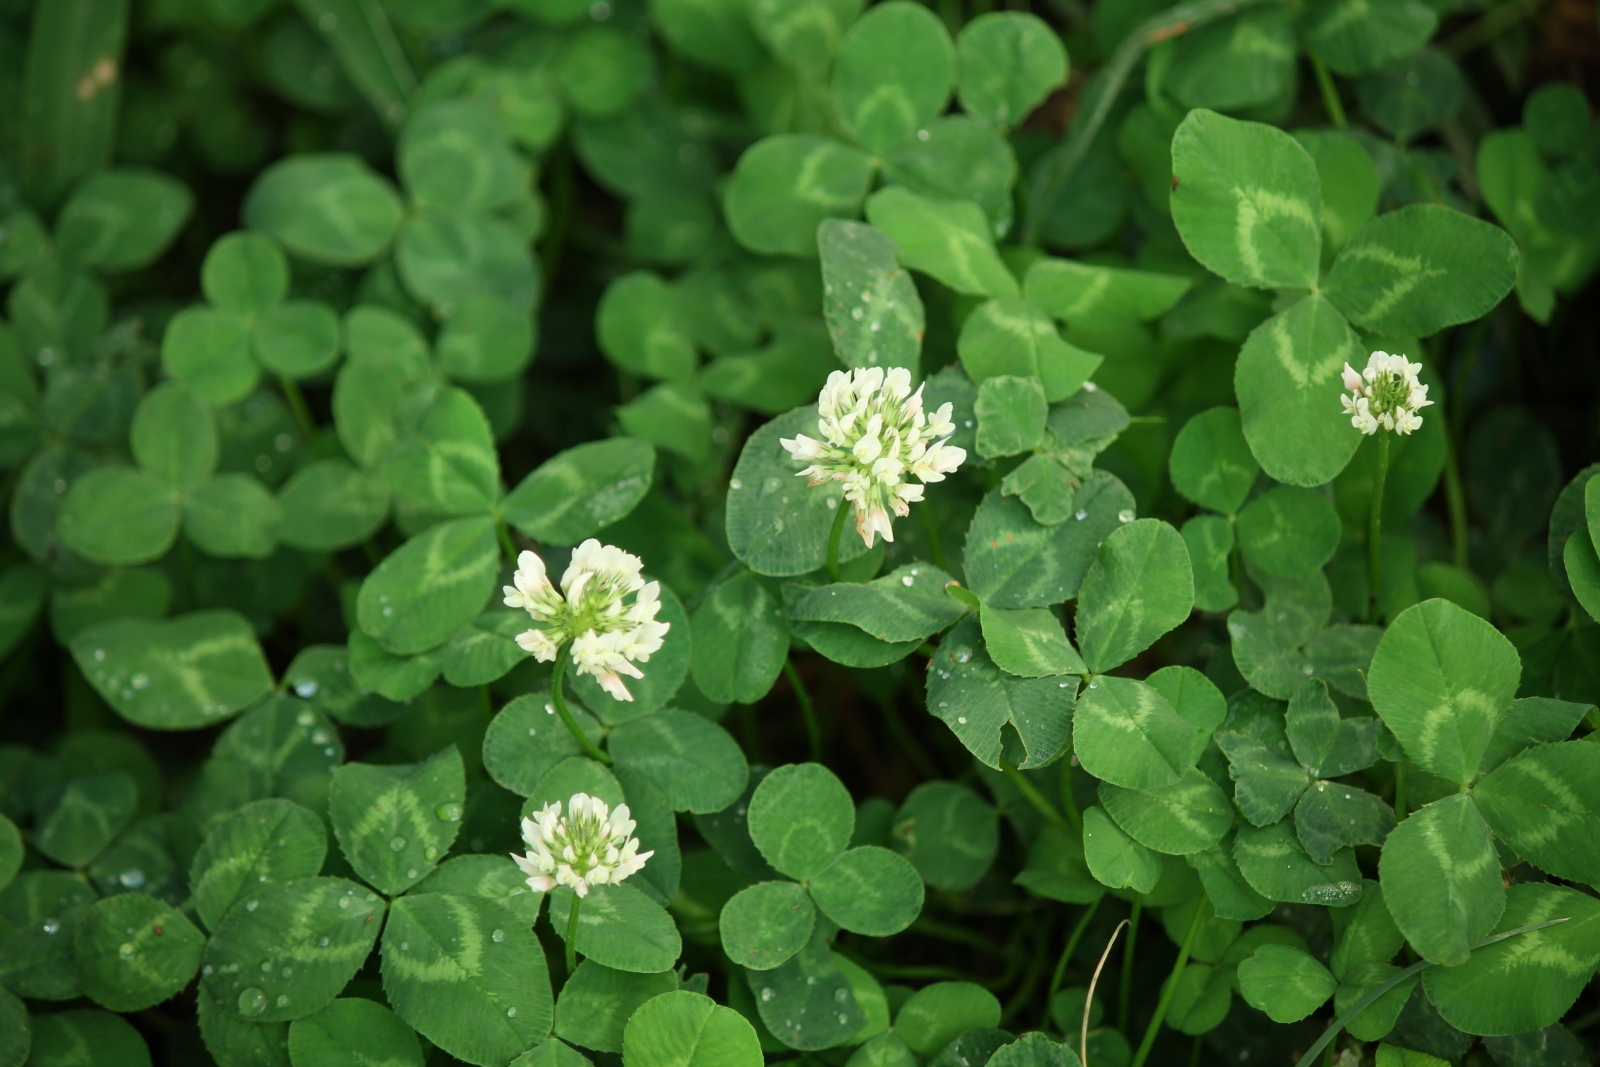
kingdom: Plantae
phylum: Tracheophyta
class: Magnoliopsida
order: Fabales
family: Fabaceae
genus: Trifolium
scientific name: Trifolium repens
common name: White clover
